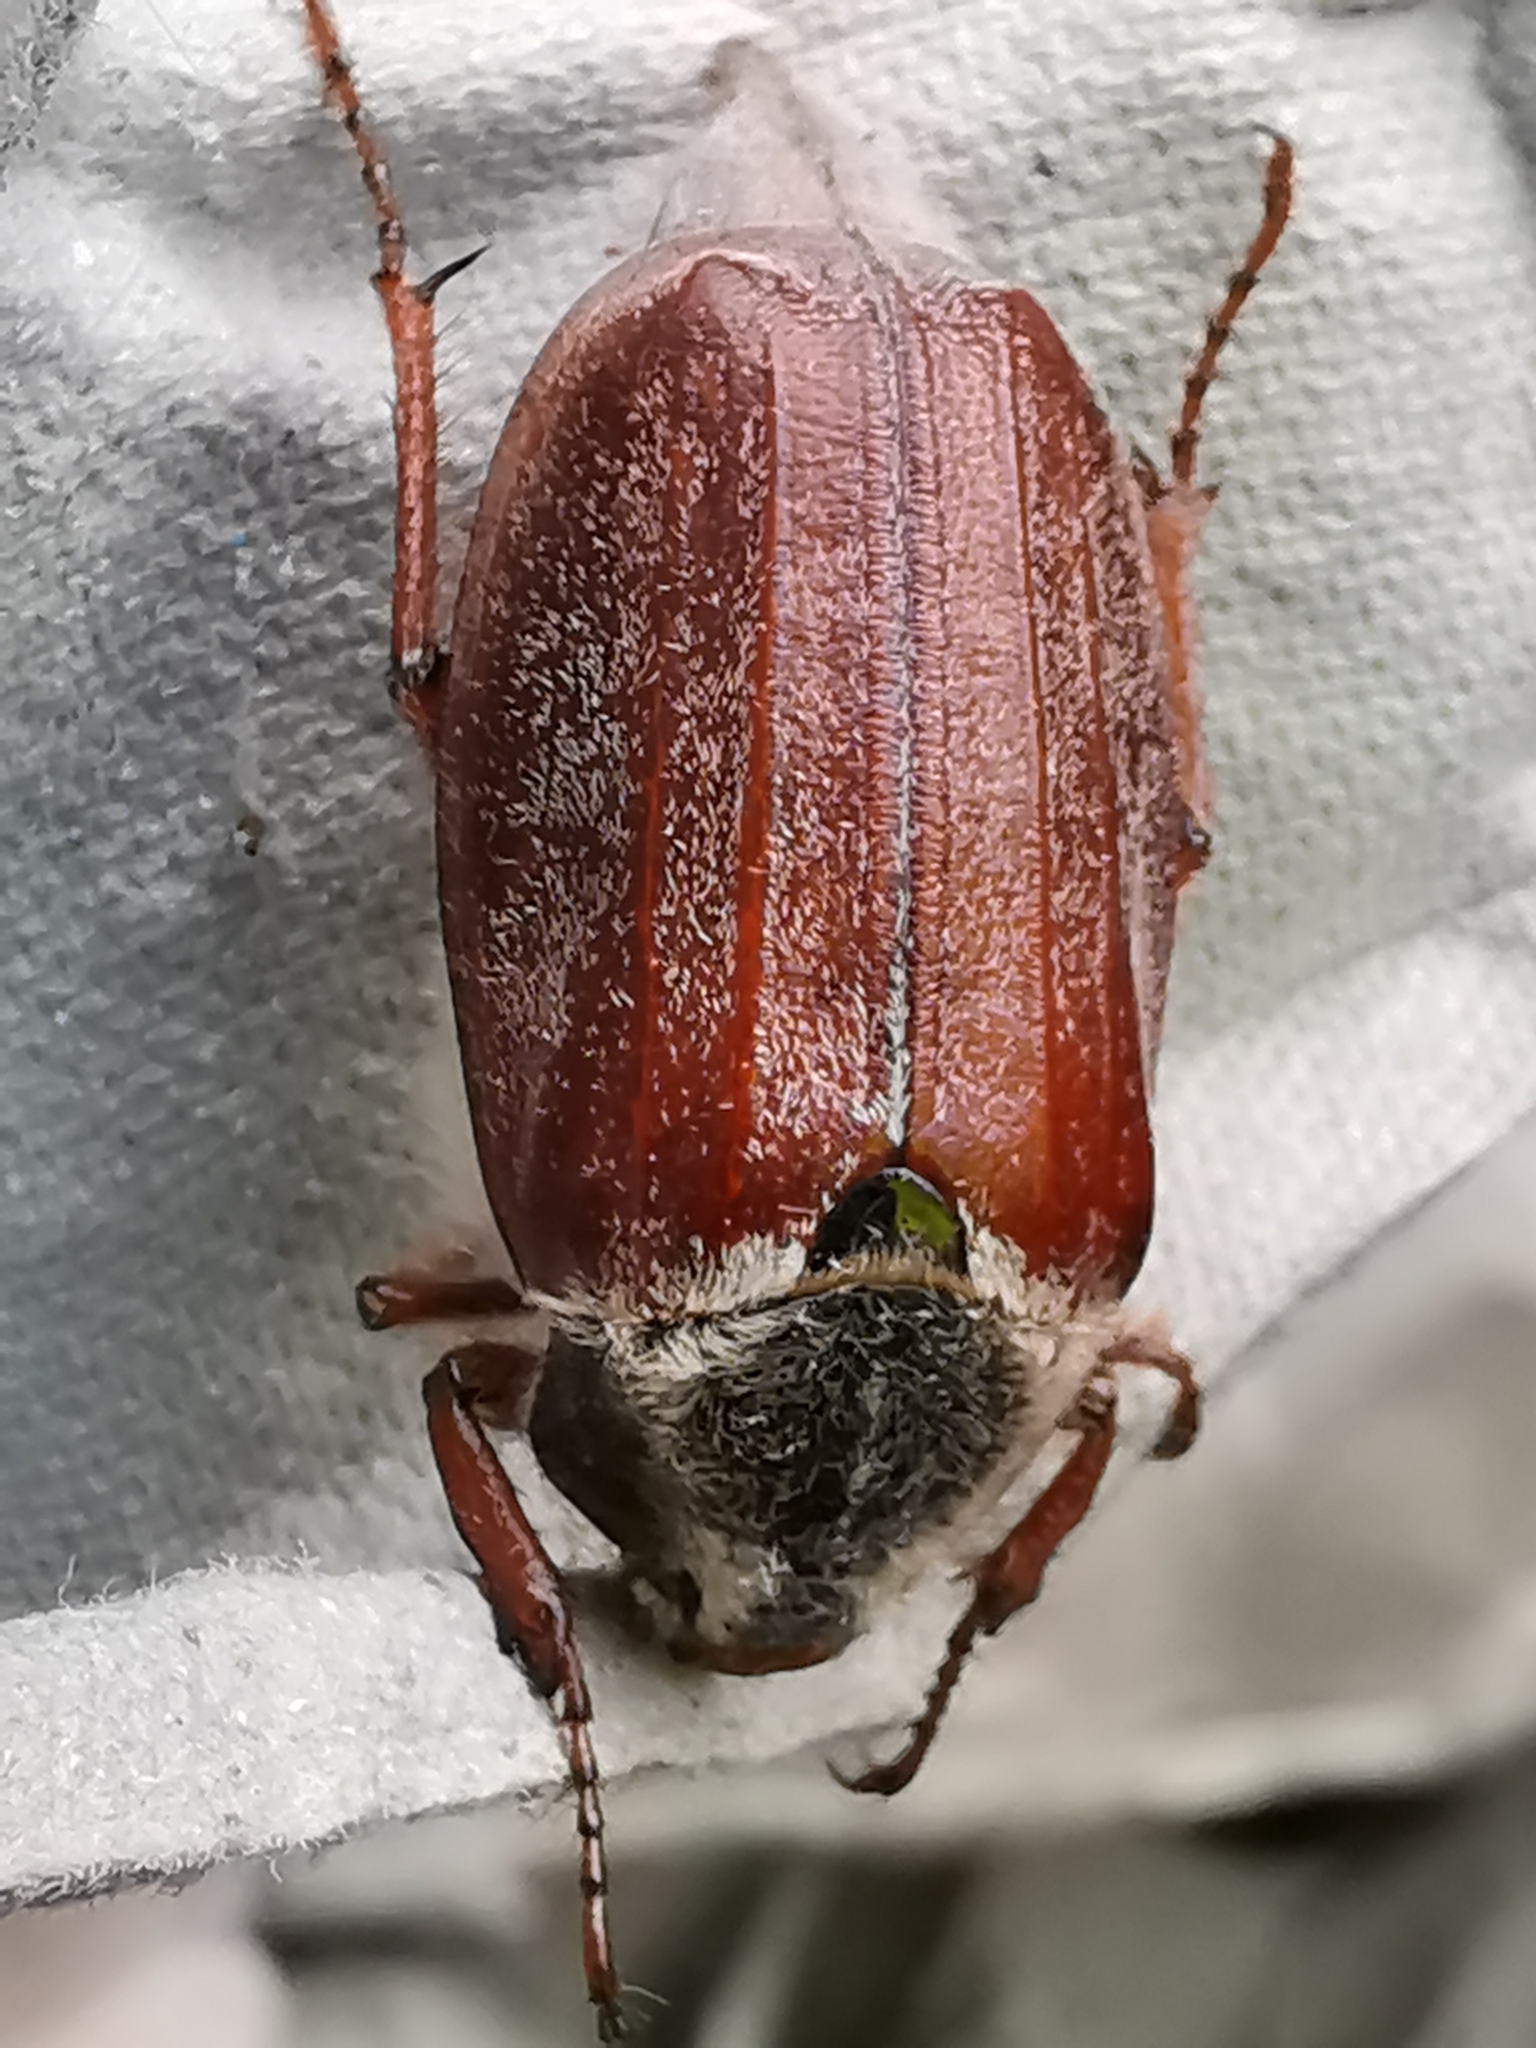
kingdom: Animalia
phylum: Arthropoda
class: Insecta
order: Coleoptera
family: Scarabaeidae
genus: Melolontha
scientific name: Melolontha melolontha
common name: Cockchafer maybeetle
